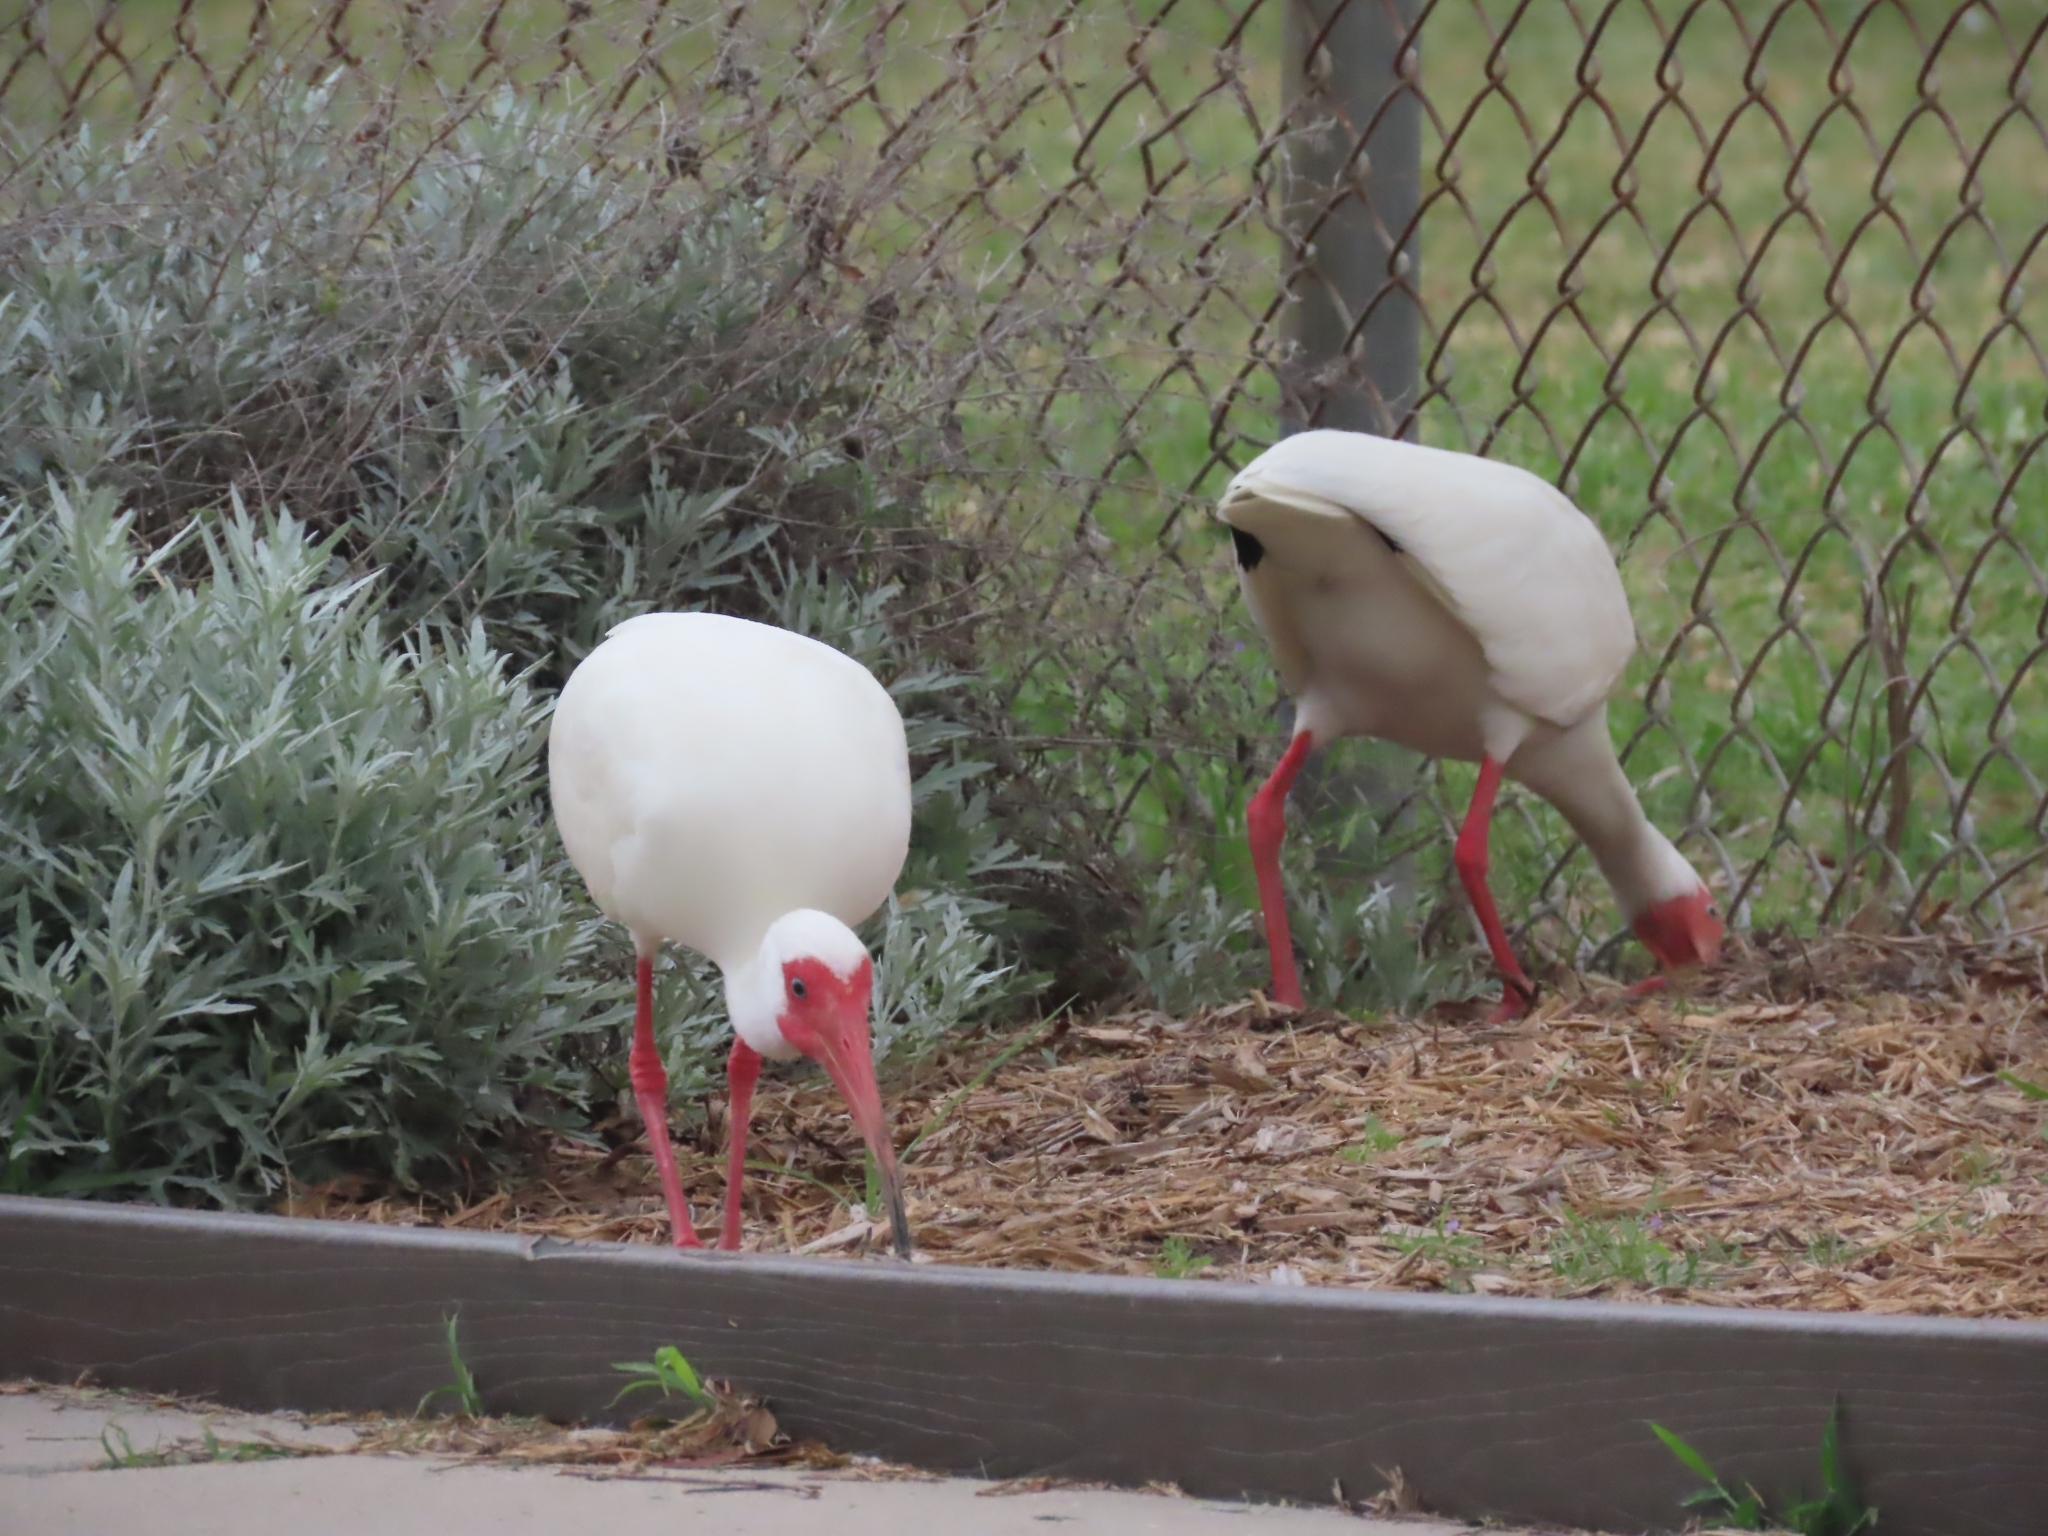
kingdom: Animalia
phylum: Chordata
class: Aves
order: Pelecaniformes
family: Threskiornithidae
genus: Eudocimus
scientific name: Eudocimus albus
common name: White ibis
